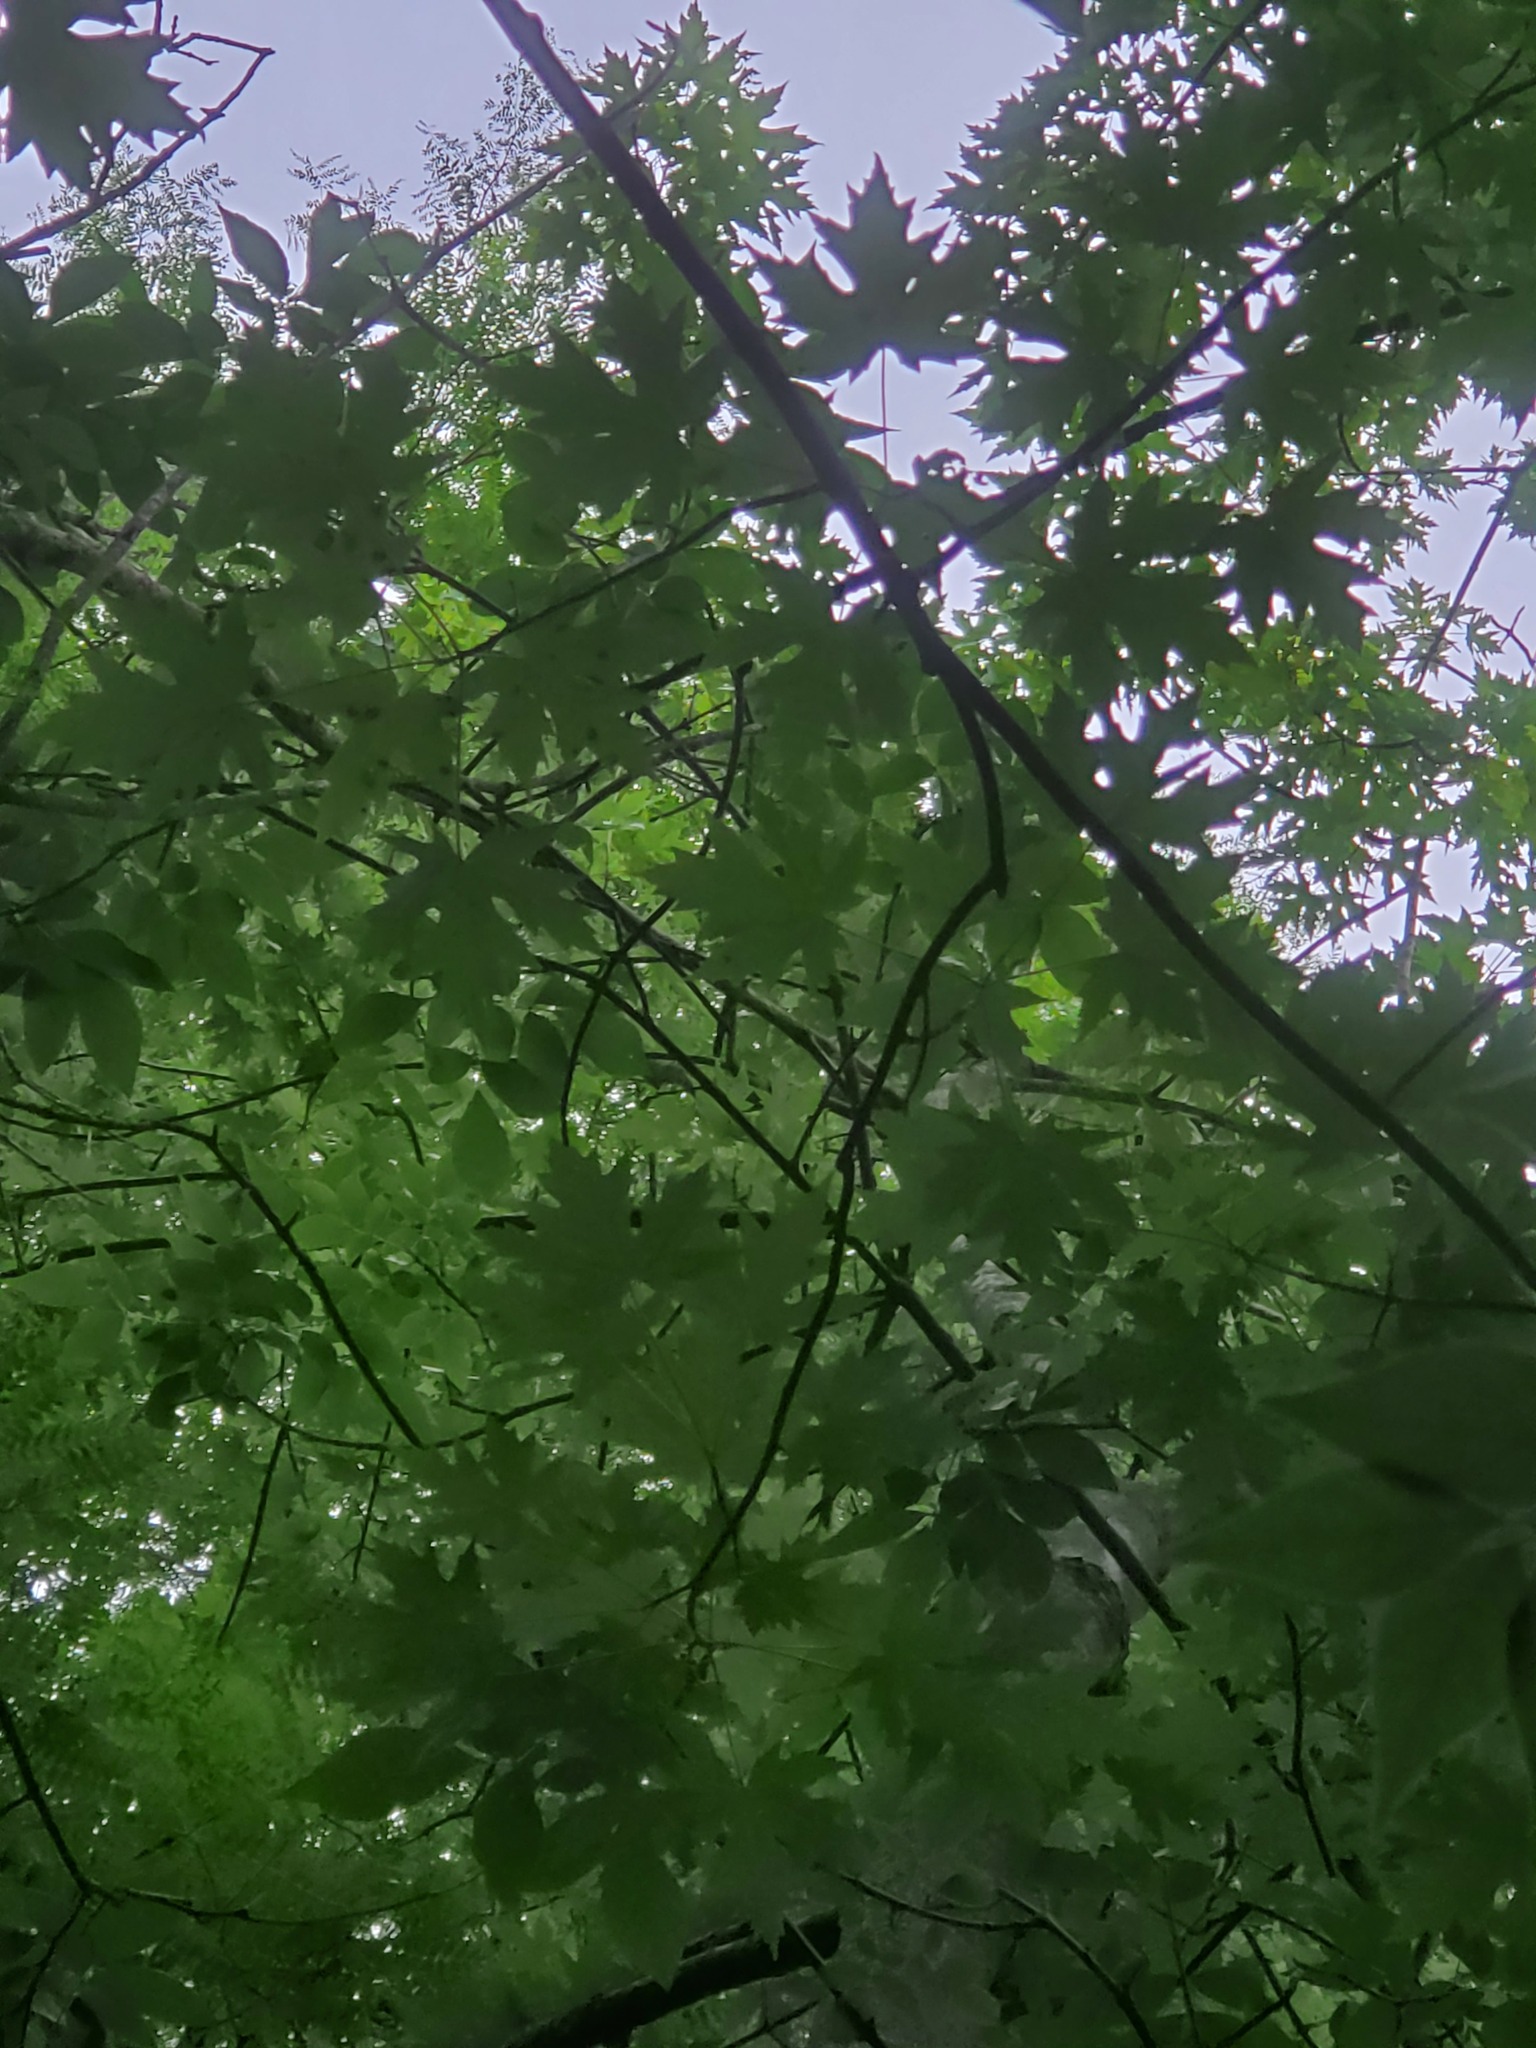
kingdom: Plantae
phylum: Tracheophyta
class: Magnoliopsida
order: Sapindales
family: Sapindaceae
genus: Acer
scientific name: Acer saccharinum
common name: Silver maple
